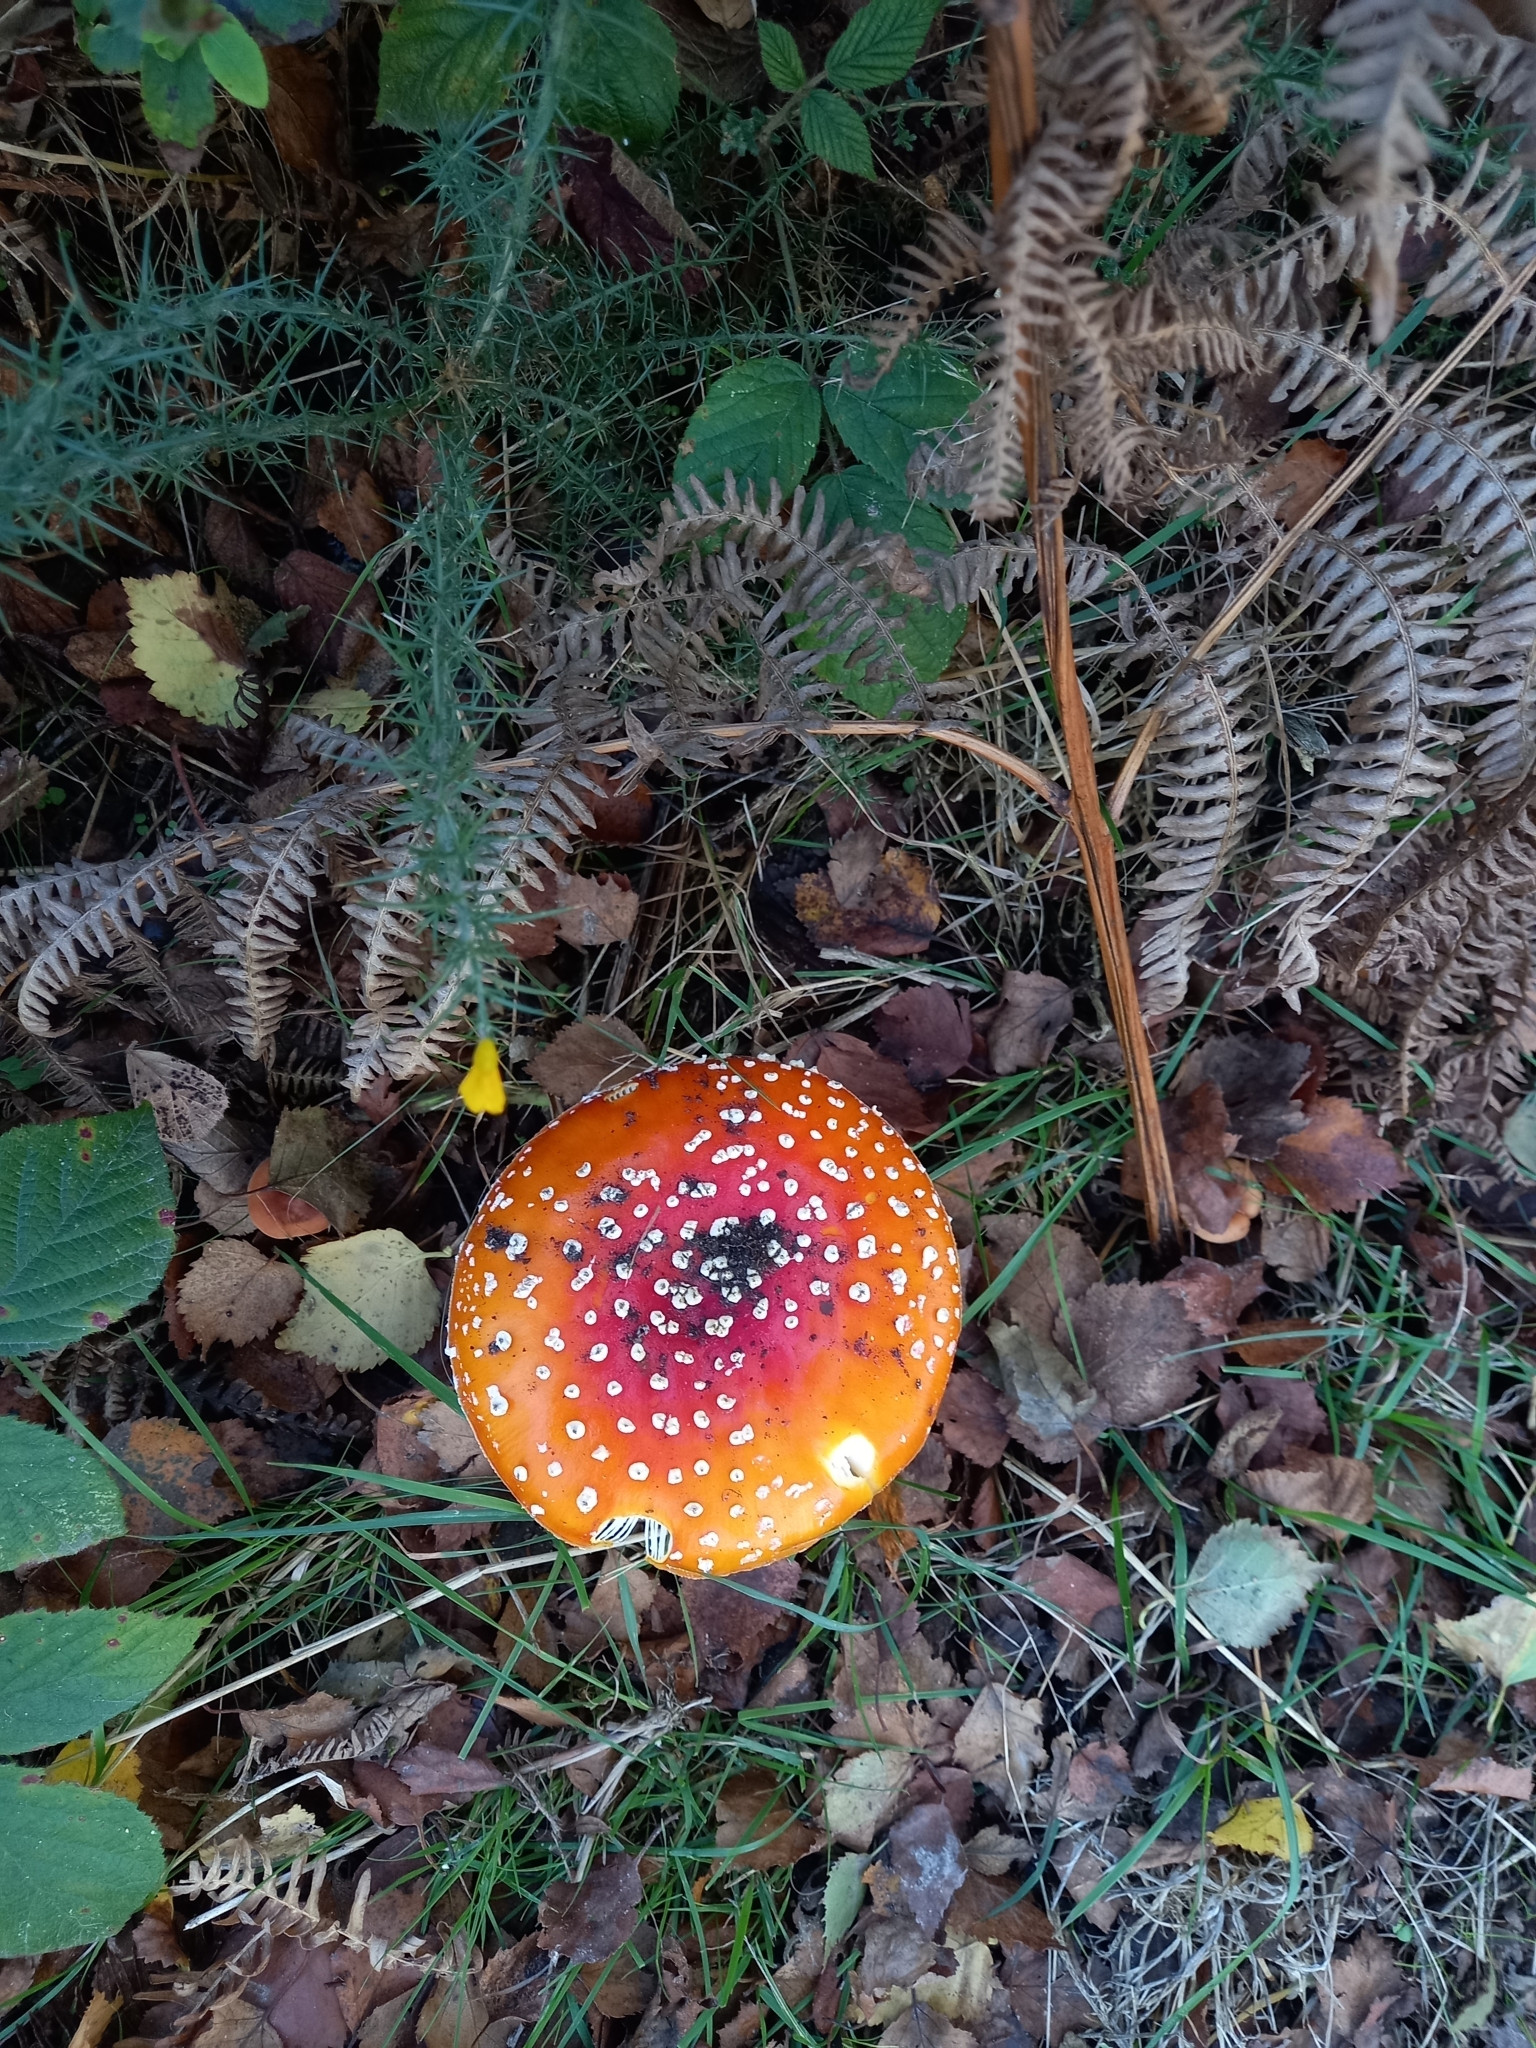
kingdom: Fungi
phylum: Basidiomycota
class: Agaricomycetes
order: Agaricales
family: Amanitaceae
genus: Amanita
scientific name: Amanita muscaria
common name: Fly agaric
